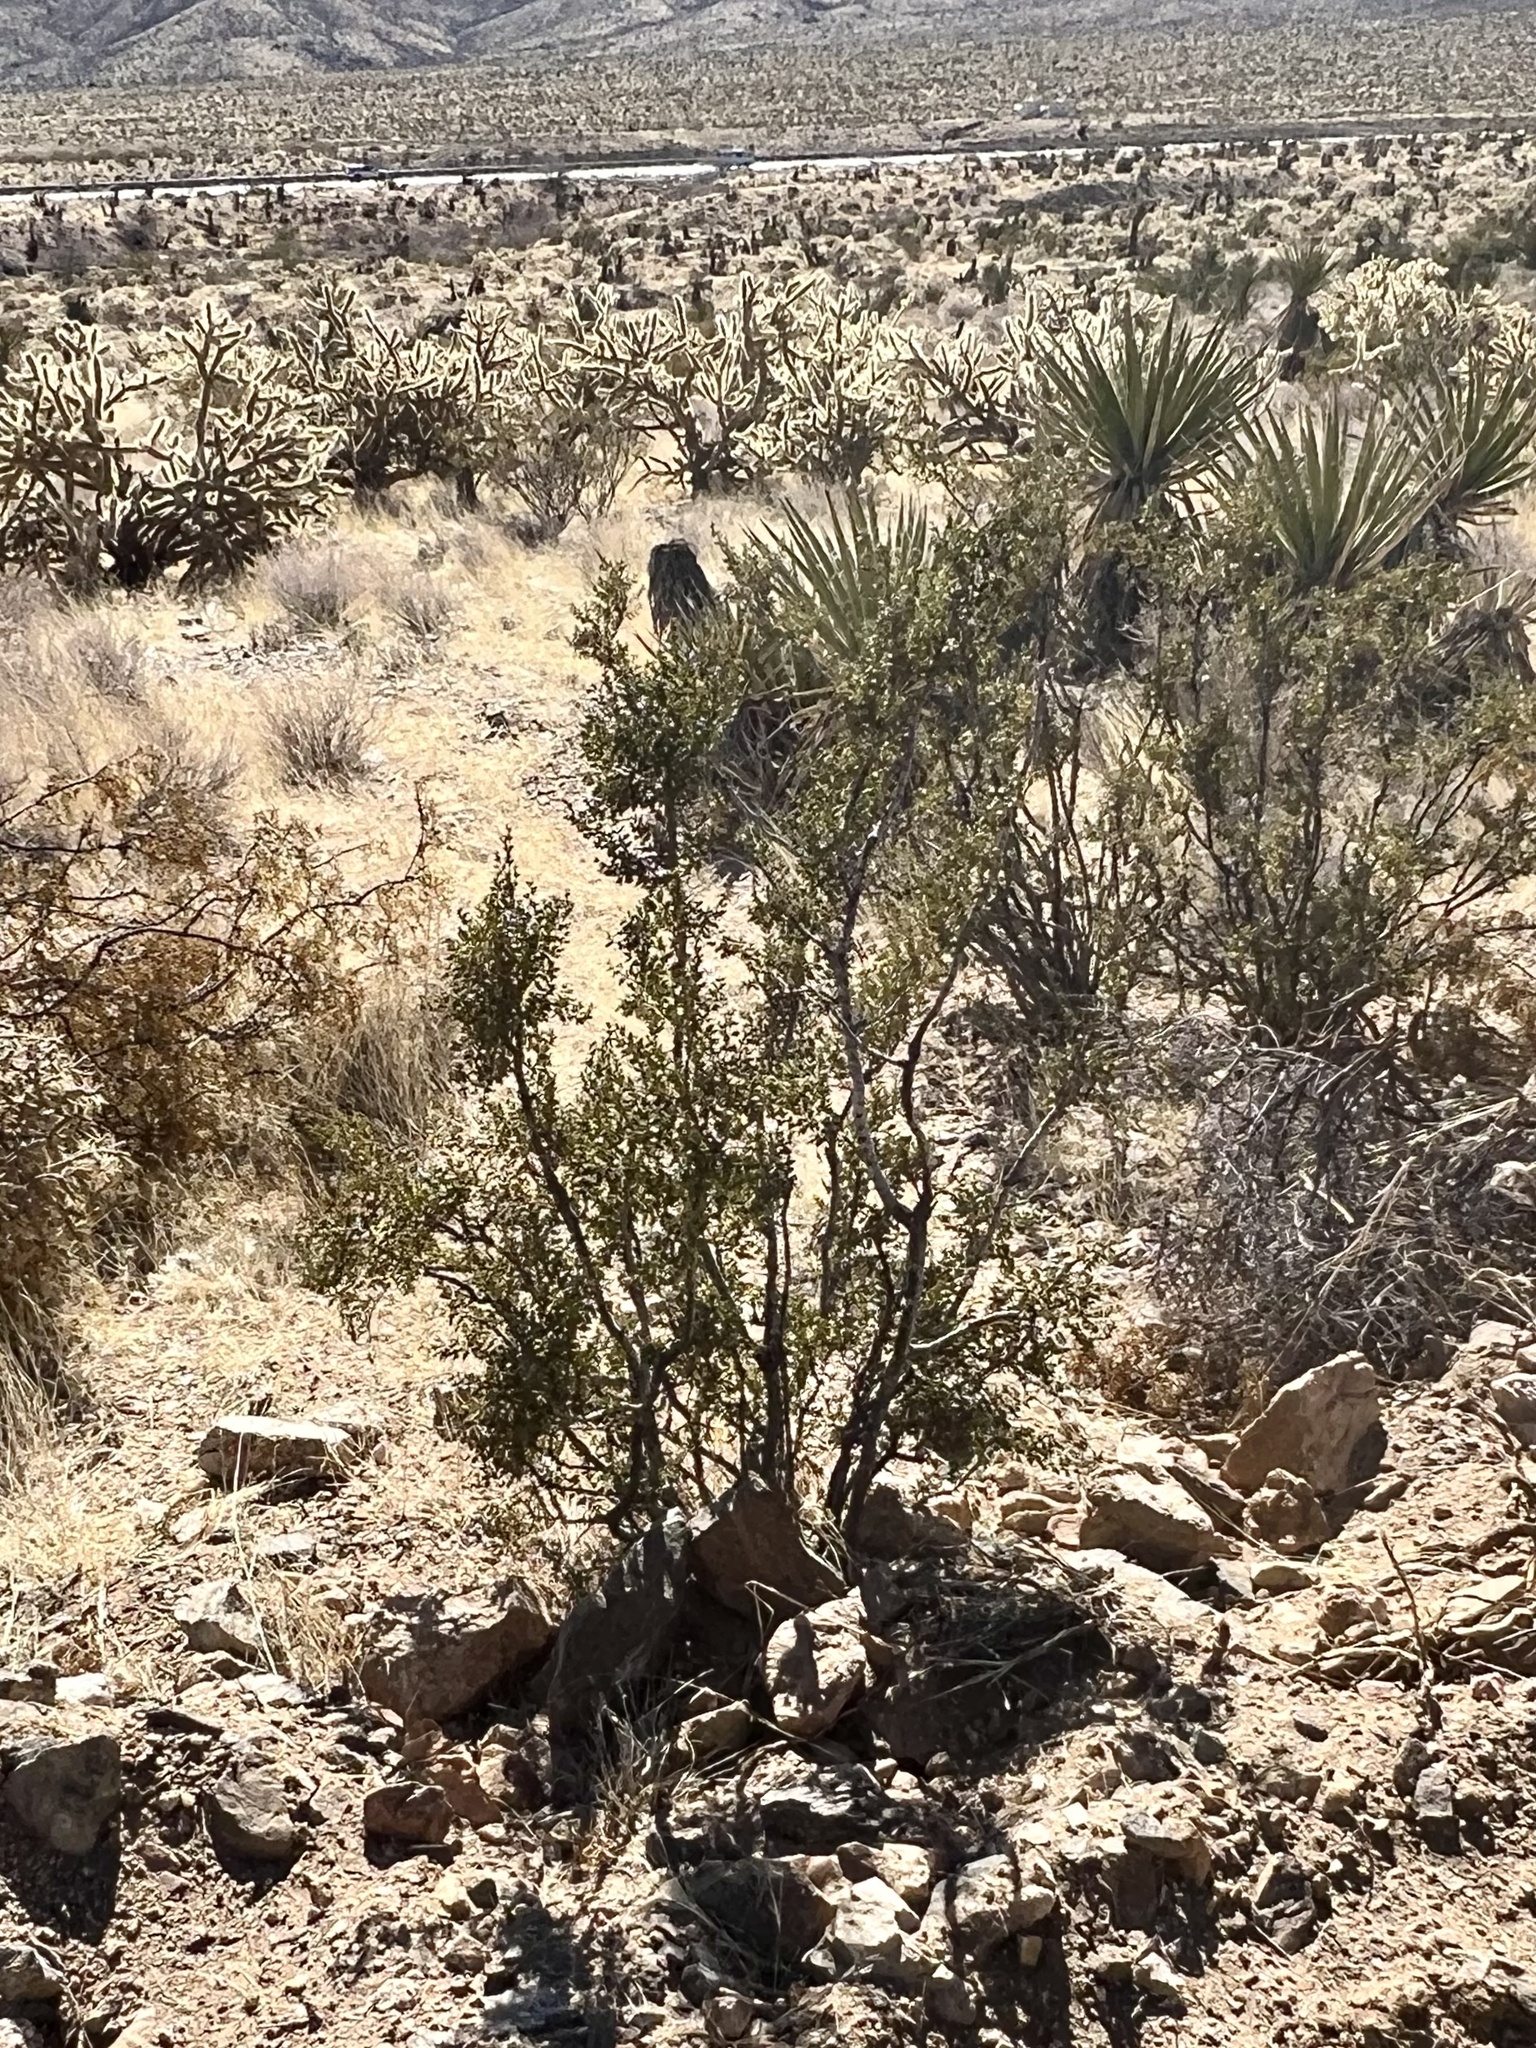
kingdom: Plantae
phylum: Tracheophyta
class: Magnoliopsida
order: Zygophyllales
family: Zygophyllaceae
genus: Larrea
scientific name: Larrea tridentata
